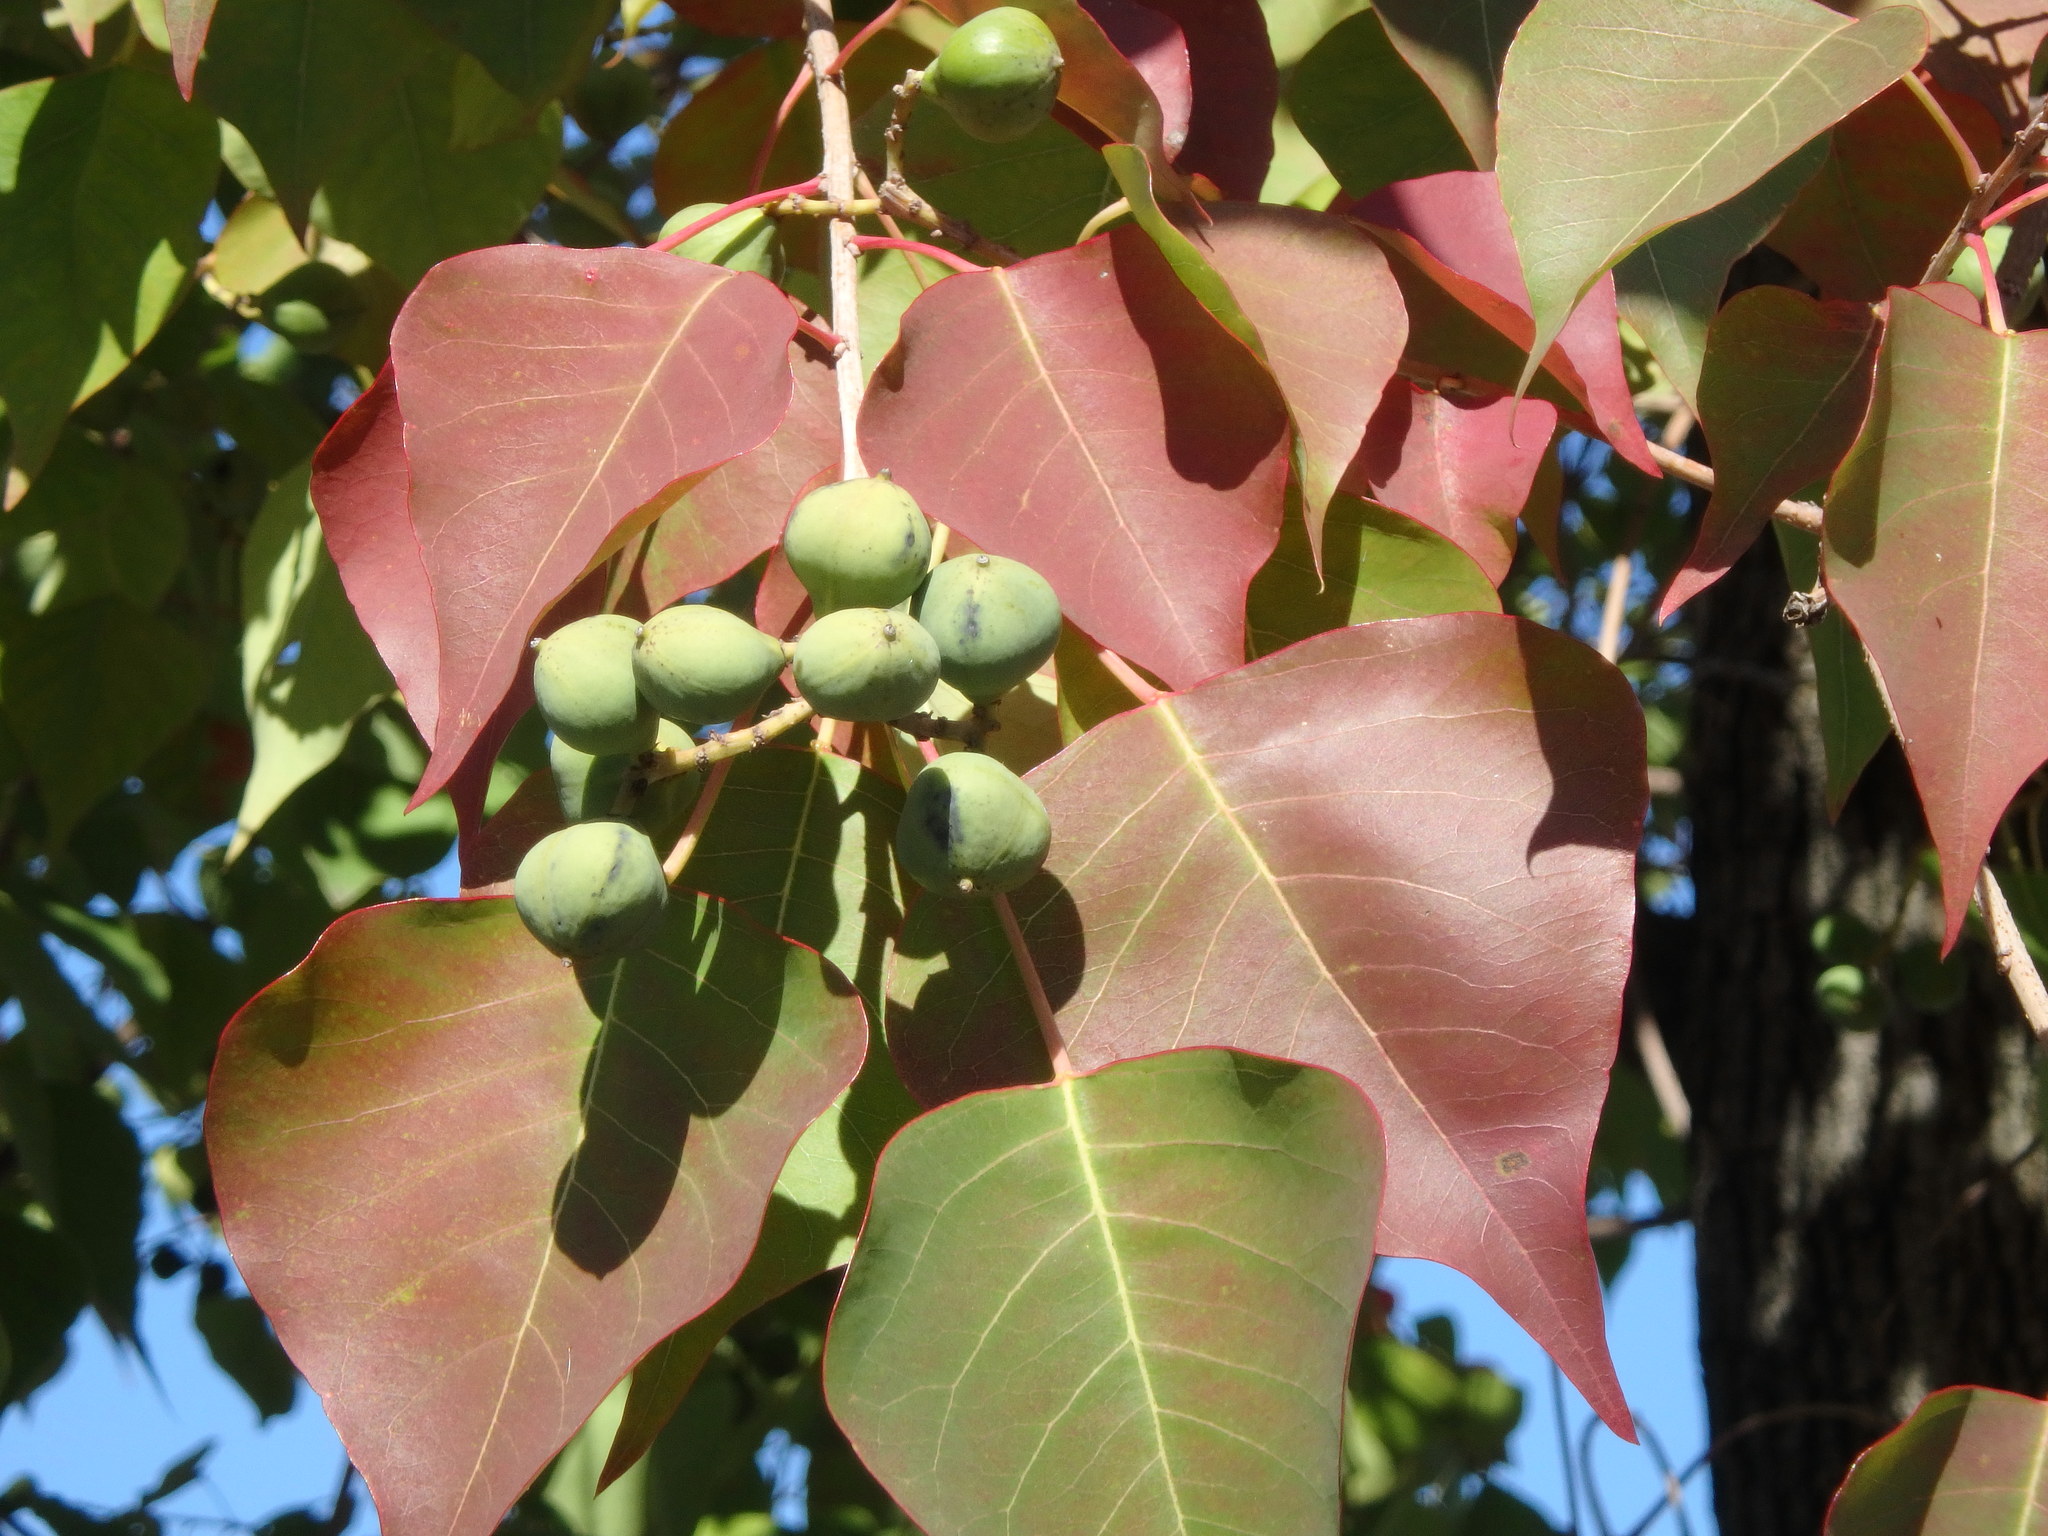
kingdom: Plantae
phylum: Tracheophyta
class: Magnoliopsida
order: Malpighiales
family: Euphorbiaceae
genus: Triadica
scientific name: Triadica sebifera
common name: Chinese tallow
